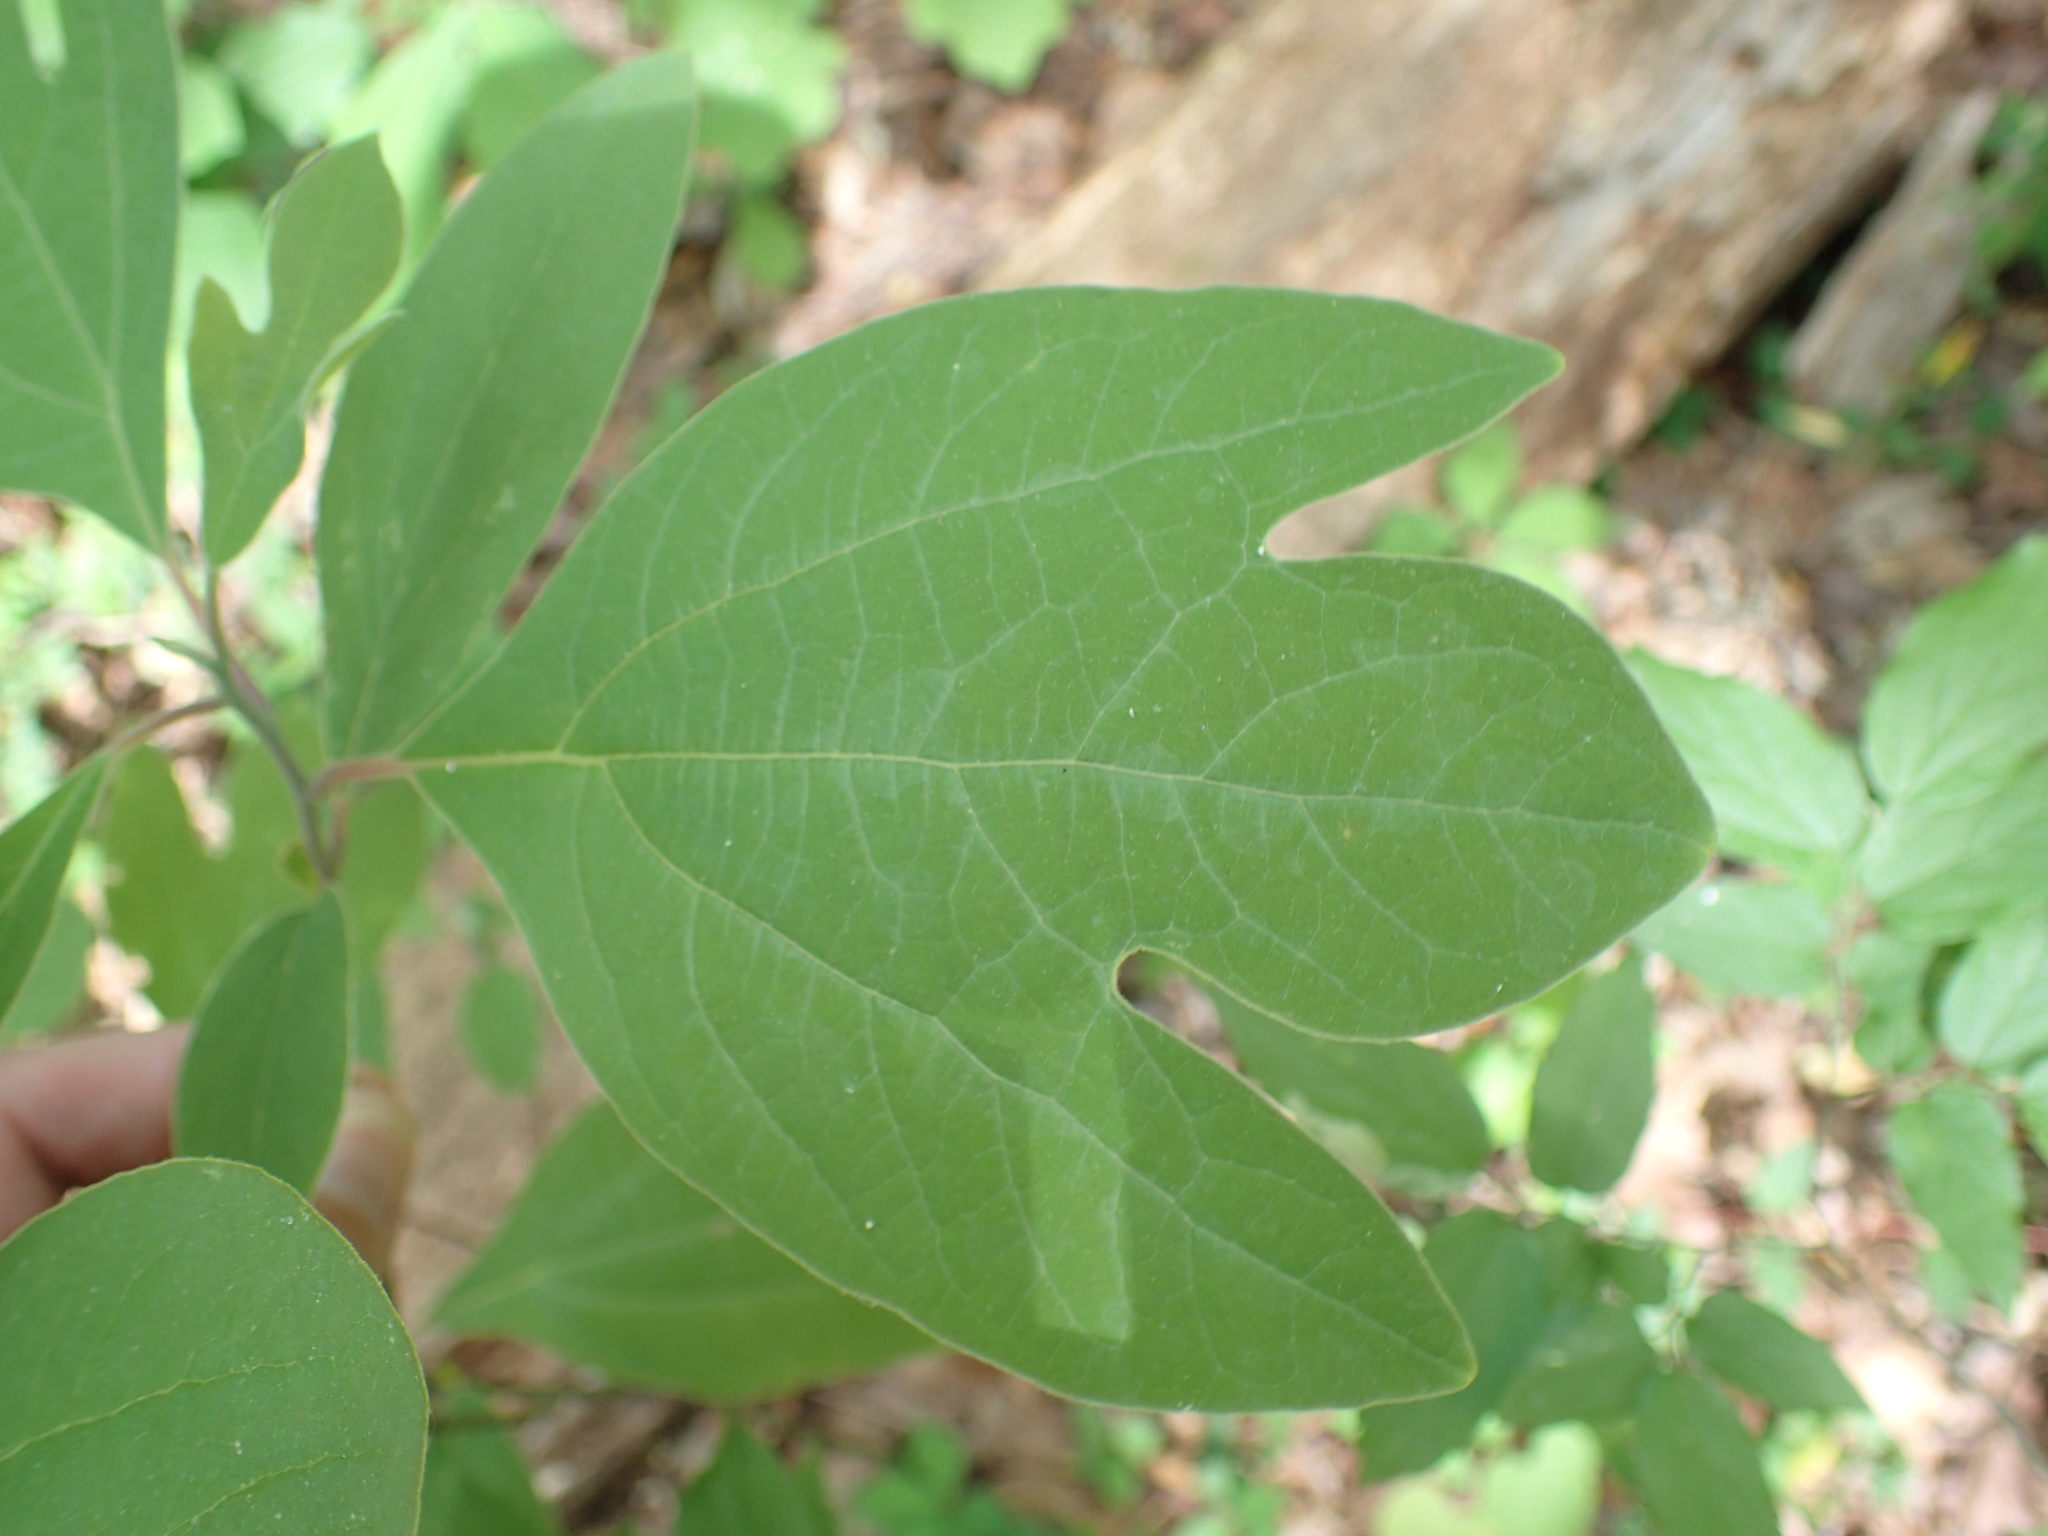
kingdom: Plantae
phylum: Tracheophyta
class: Magnoliopsida
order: Laurales
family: Lauraceae
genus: Sassafras
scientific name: Sassafras albidum
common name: Sassafras
